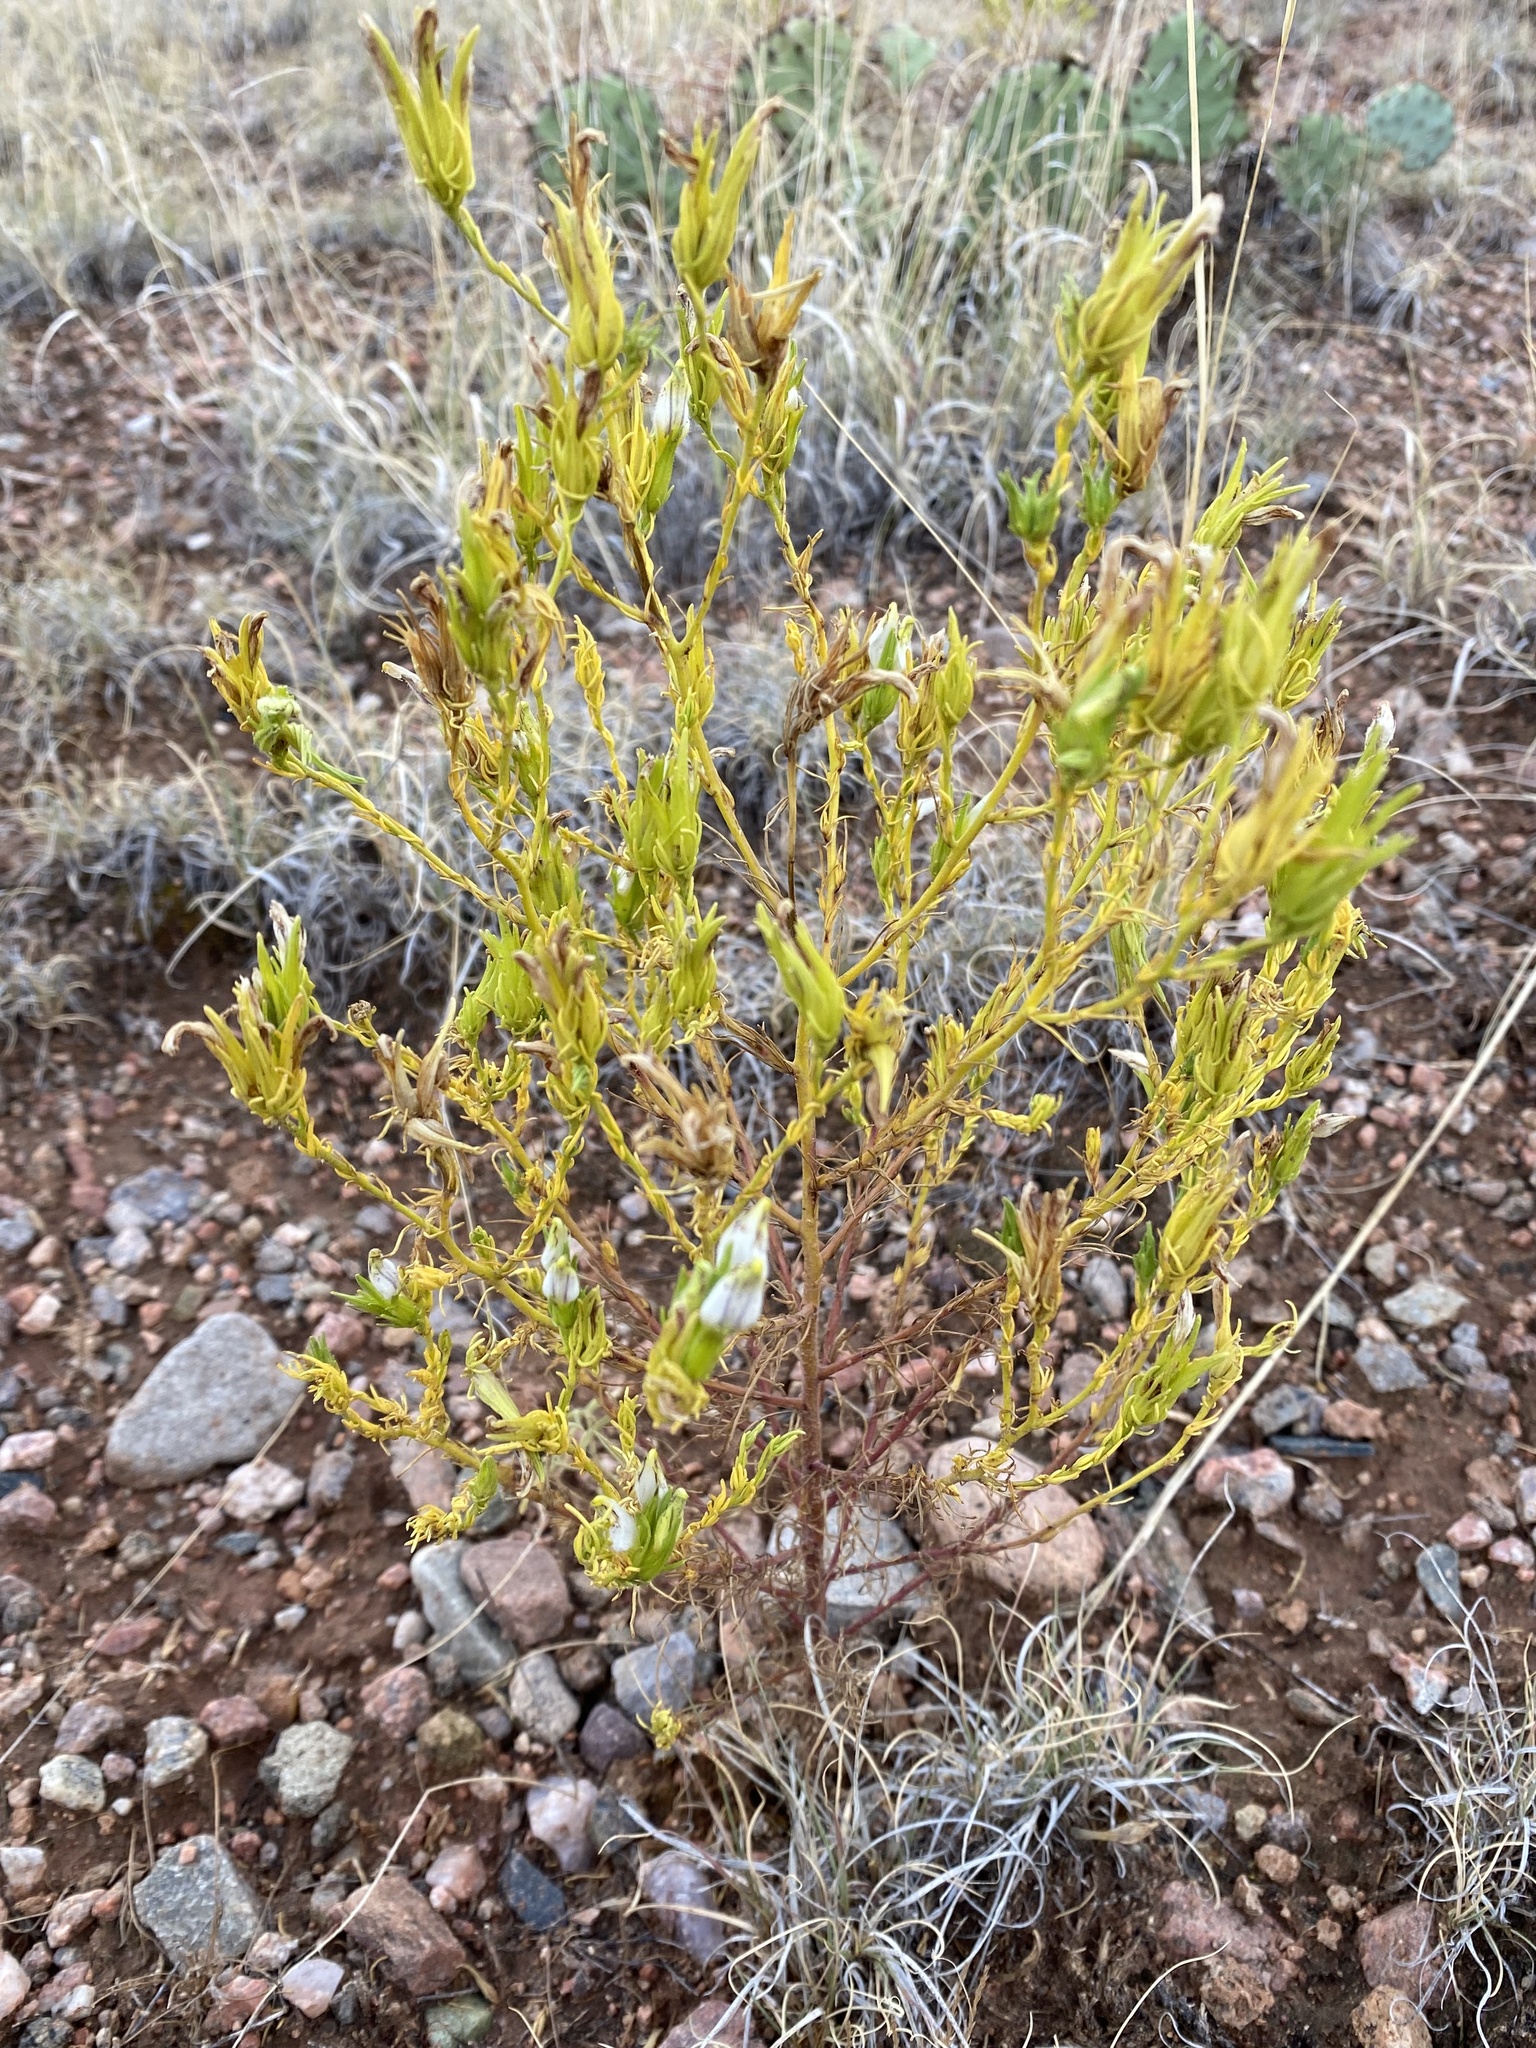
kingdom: Plantae
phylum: Tracheophyta
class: Magnoliopsida
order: Lamiales
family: Orobanchaceae
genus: Cordylanthus
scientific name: Cordylanthus wrightii
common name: Wright's birdsbeak
